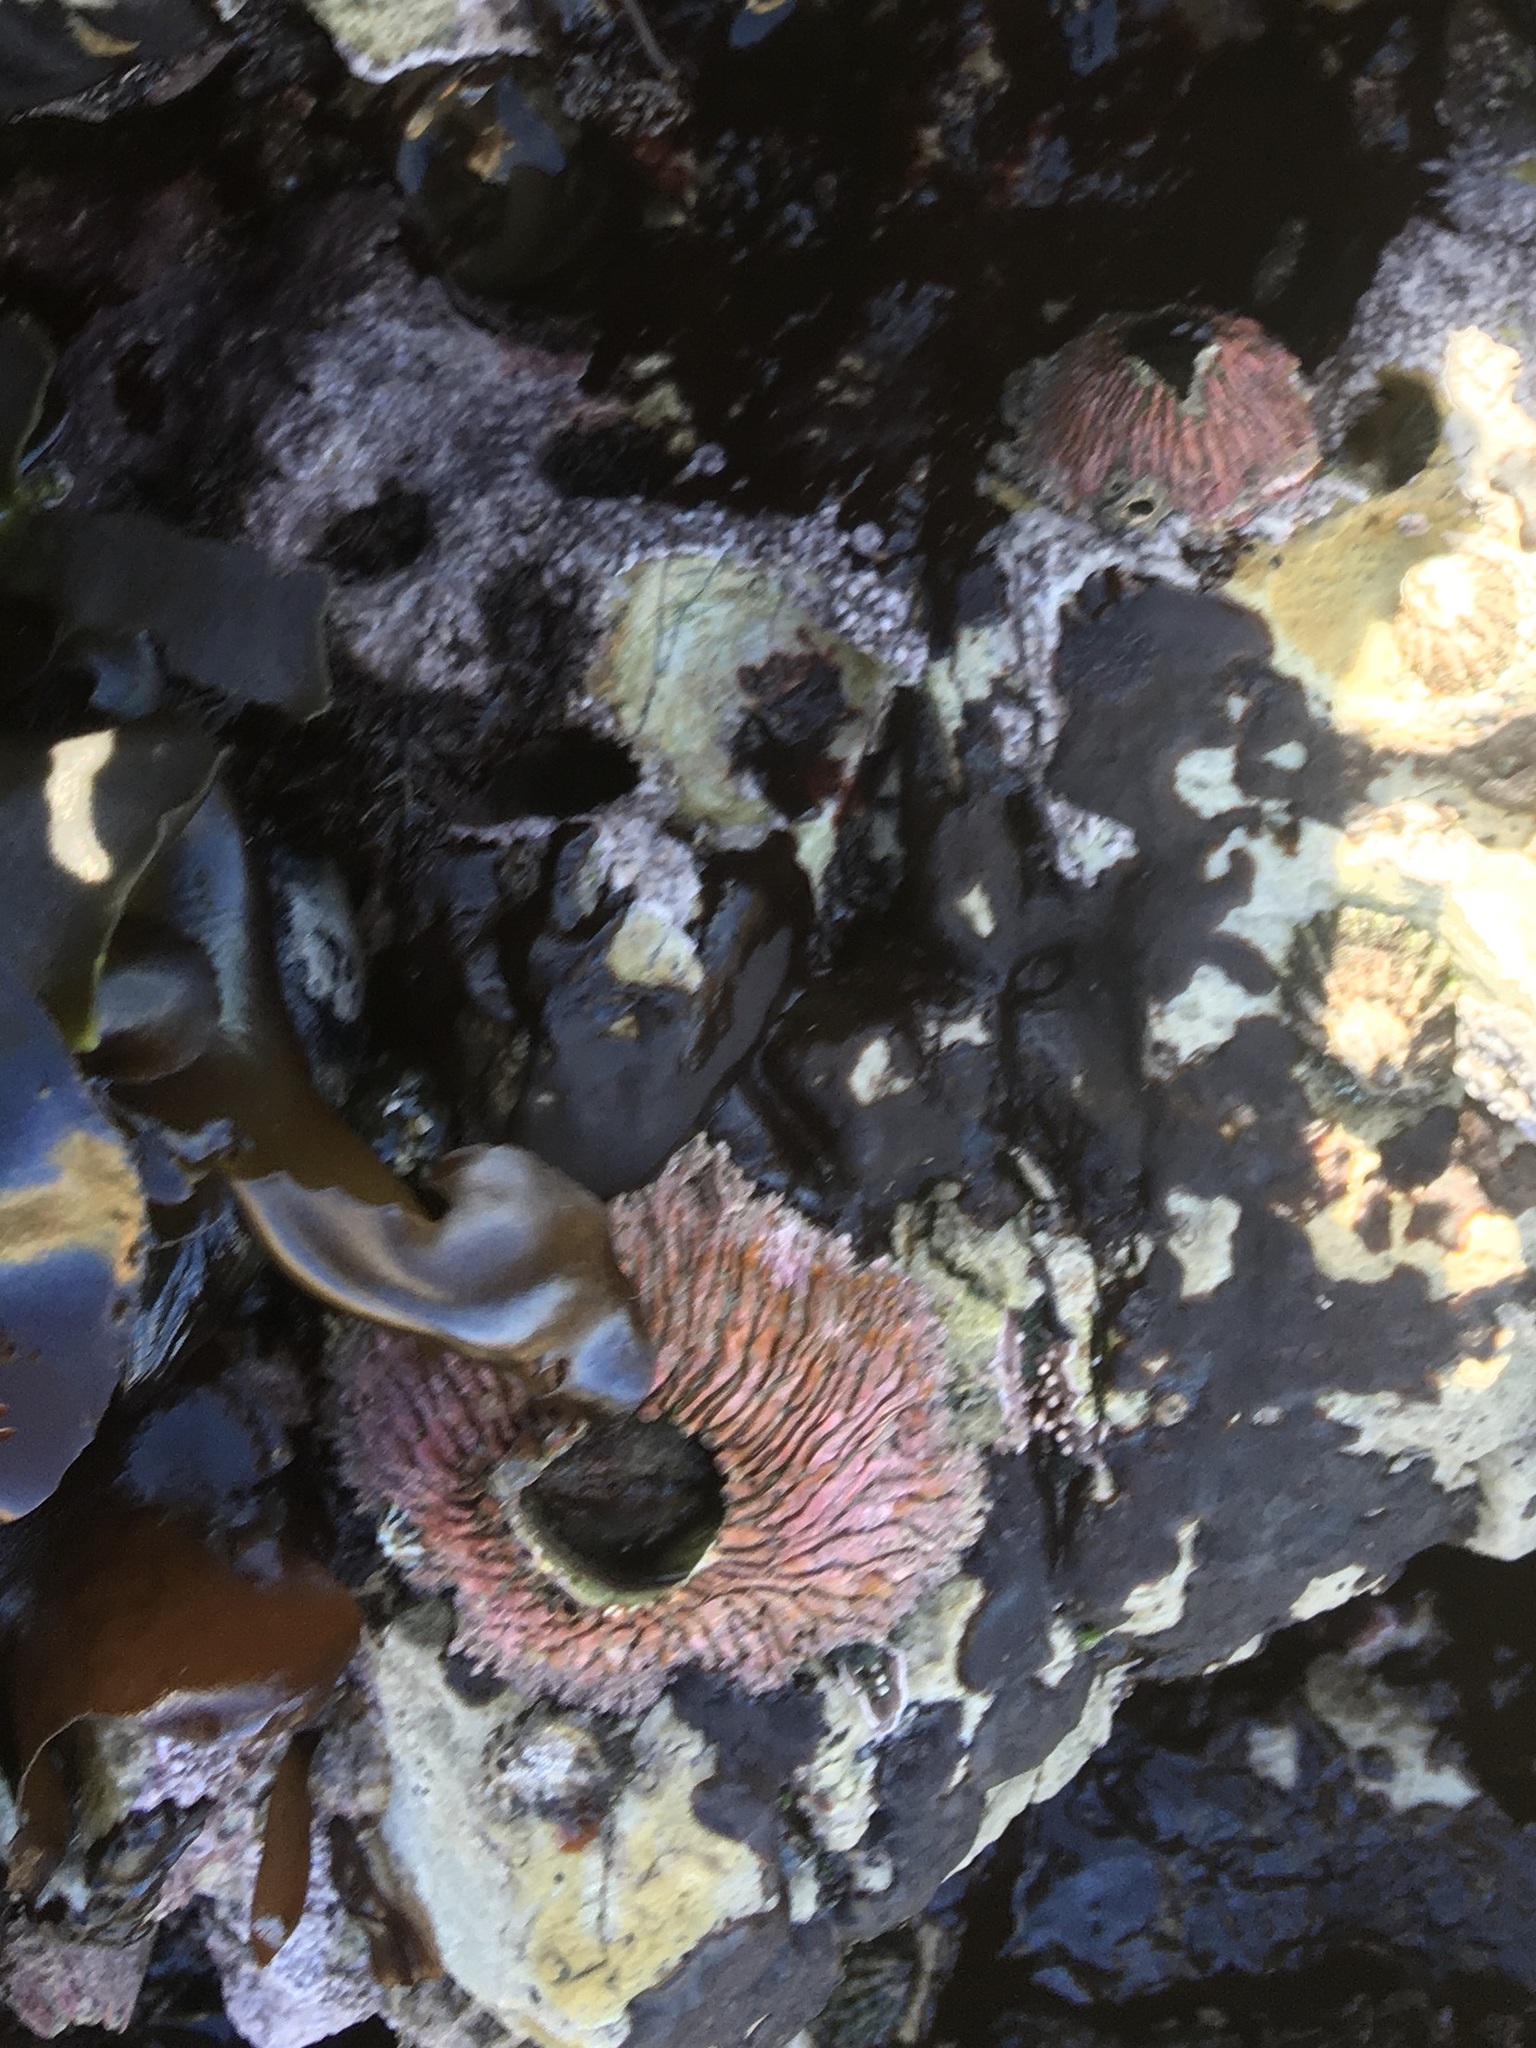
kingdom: Animalia
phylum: Arthropoda
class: Maxillopoda
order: Sessilia
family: Tetraclitidae
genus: Tetraclita
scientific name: Tetraclita rubescens
